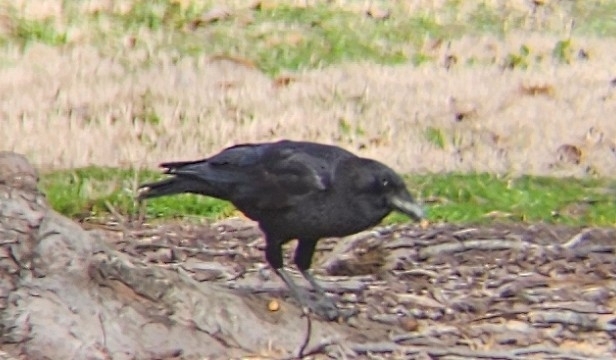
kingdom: Animalia
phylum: Chordata
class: Aves
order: Passeriformes
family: Corvidae
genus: Corvus
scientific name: Corvus brachyrhynchos
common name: American crow
